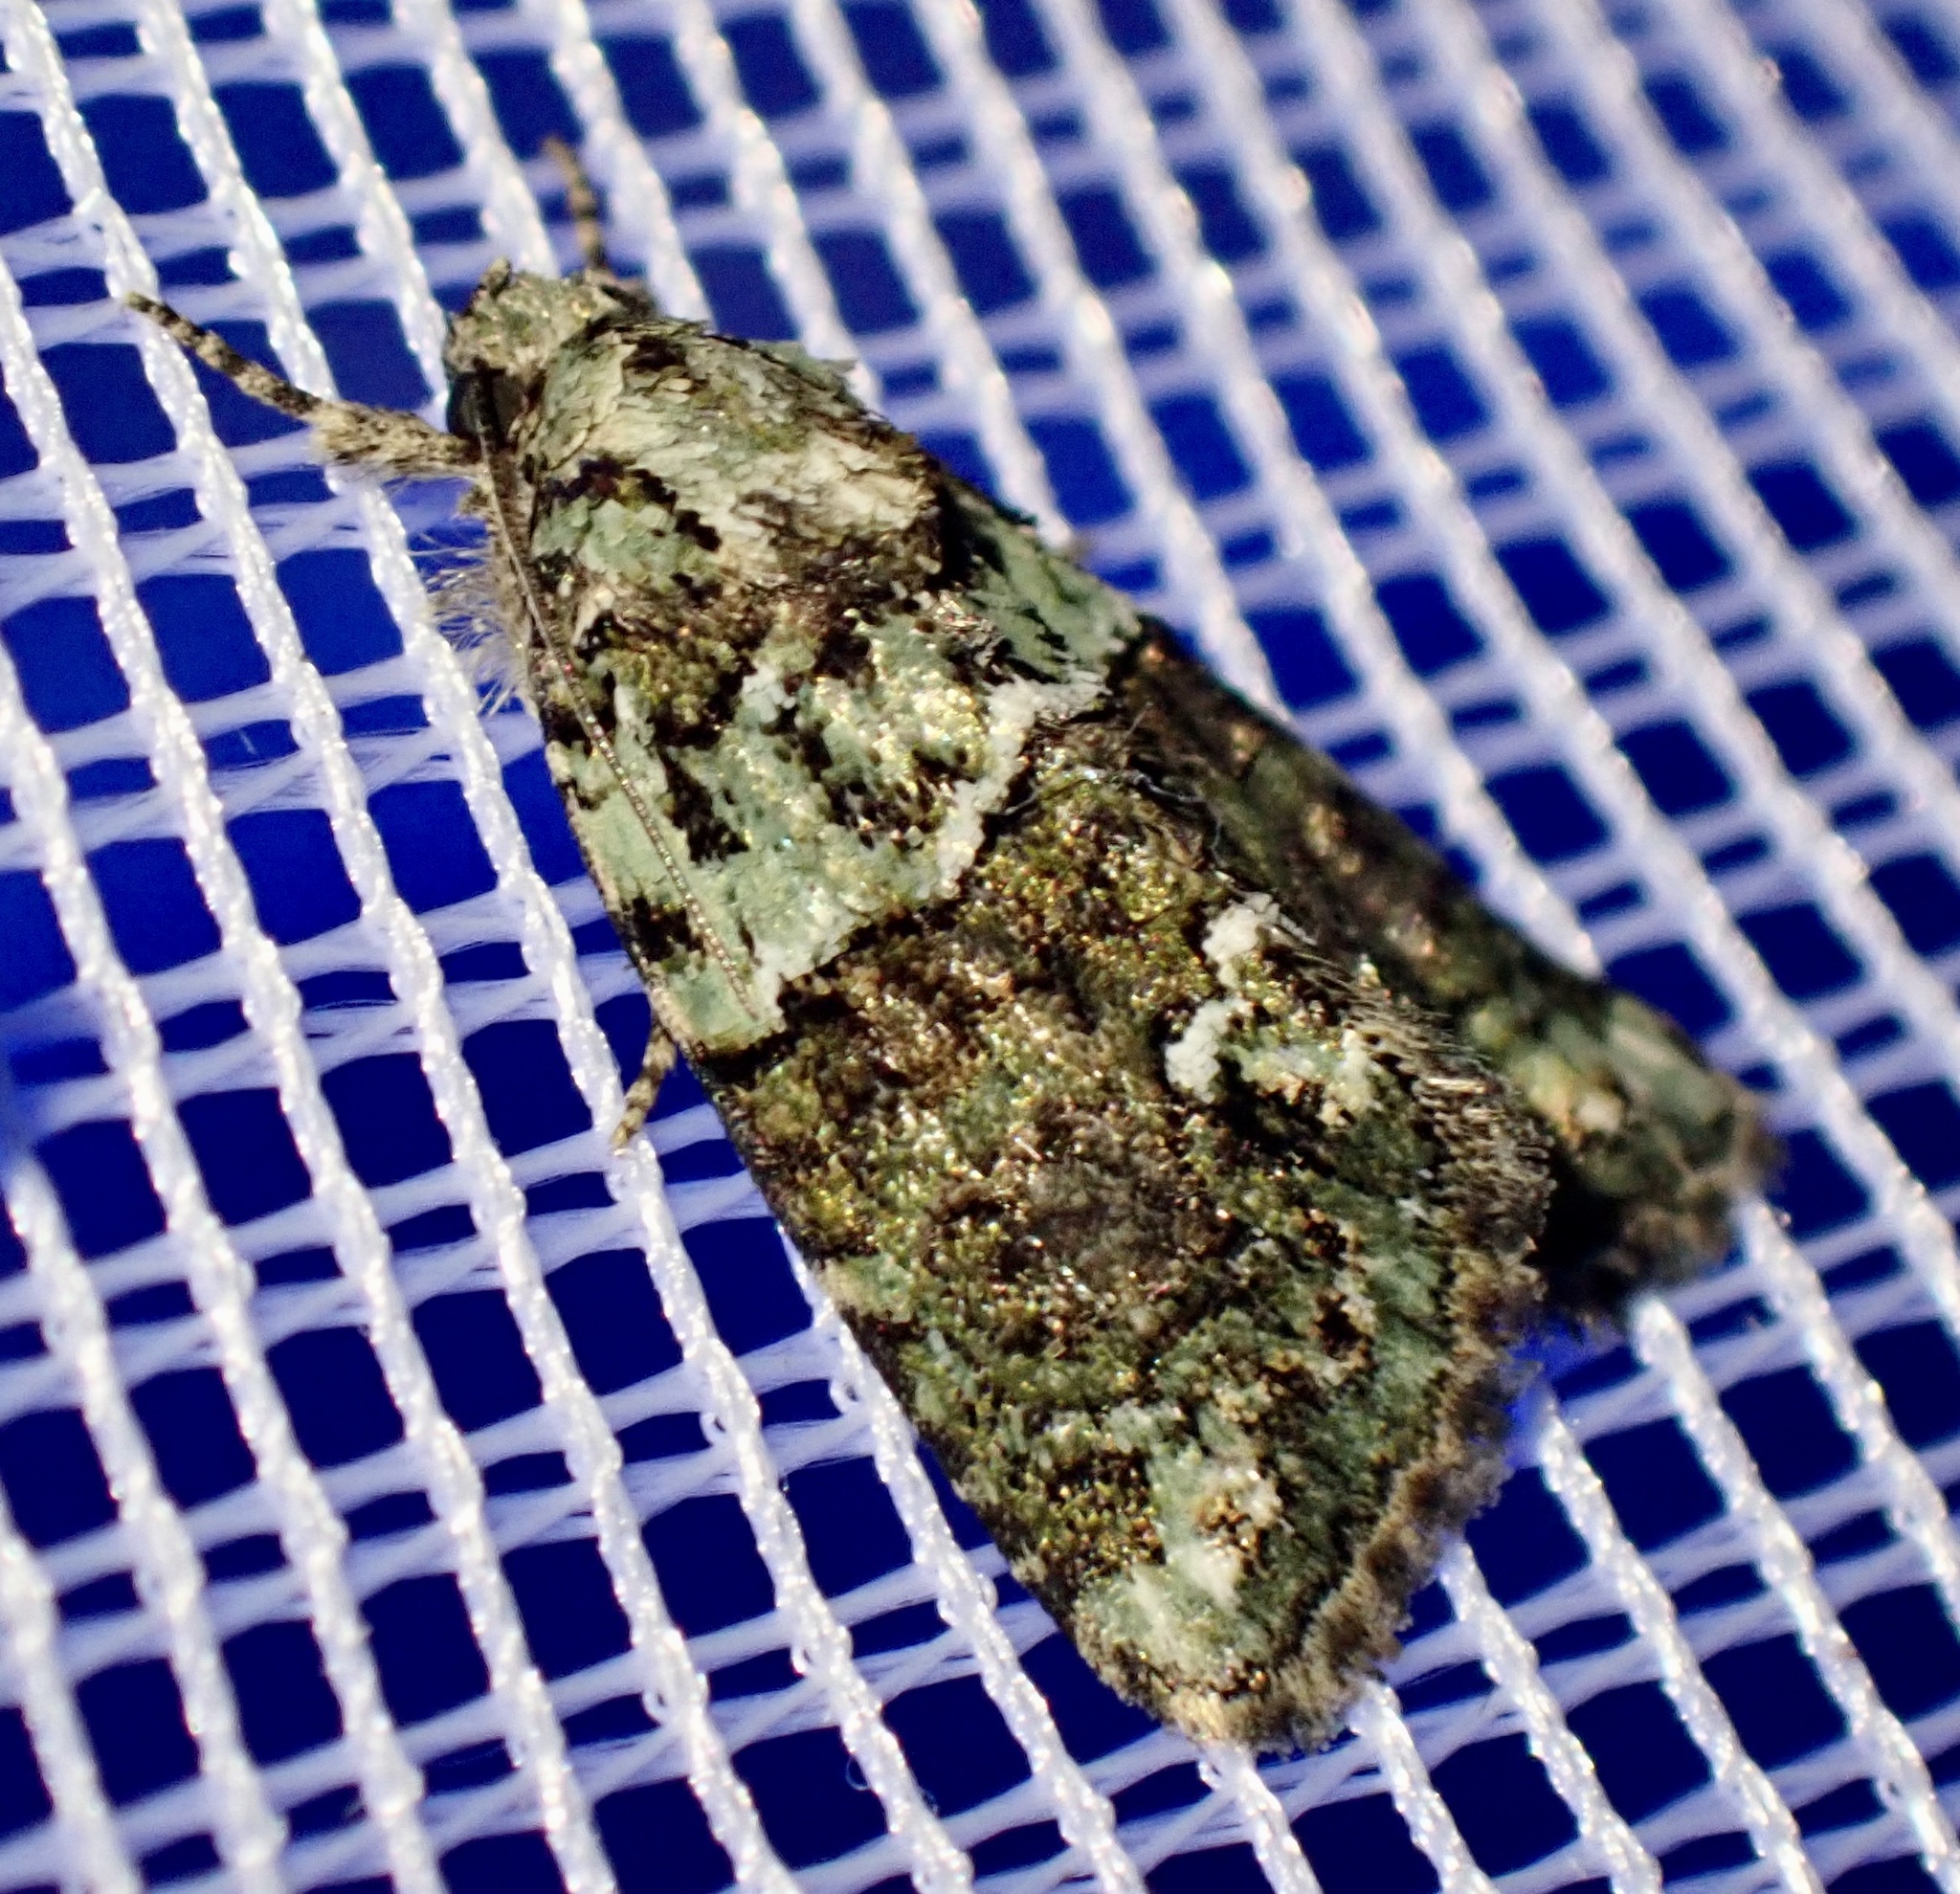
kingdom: Animalia
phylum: Arthropoda
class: Insecta
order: Lepidoptera
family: Noctuidae
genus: Cryphia
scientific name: Cryphia algae
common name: Tree-lichen beauty
